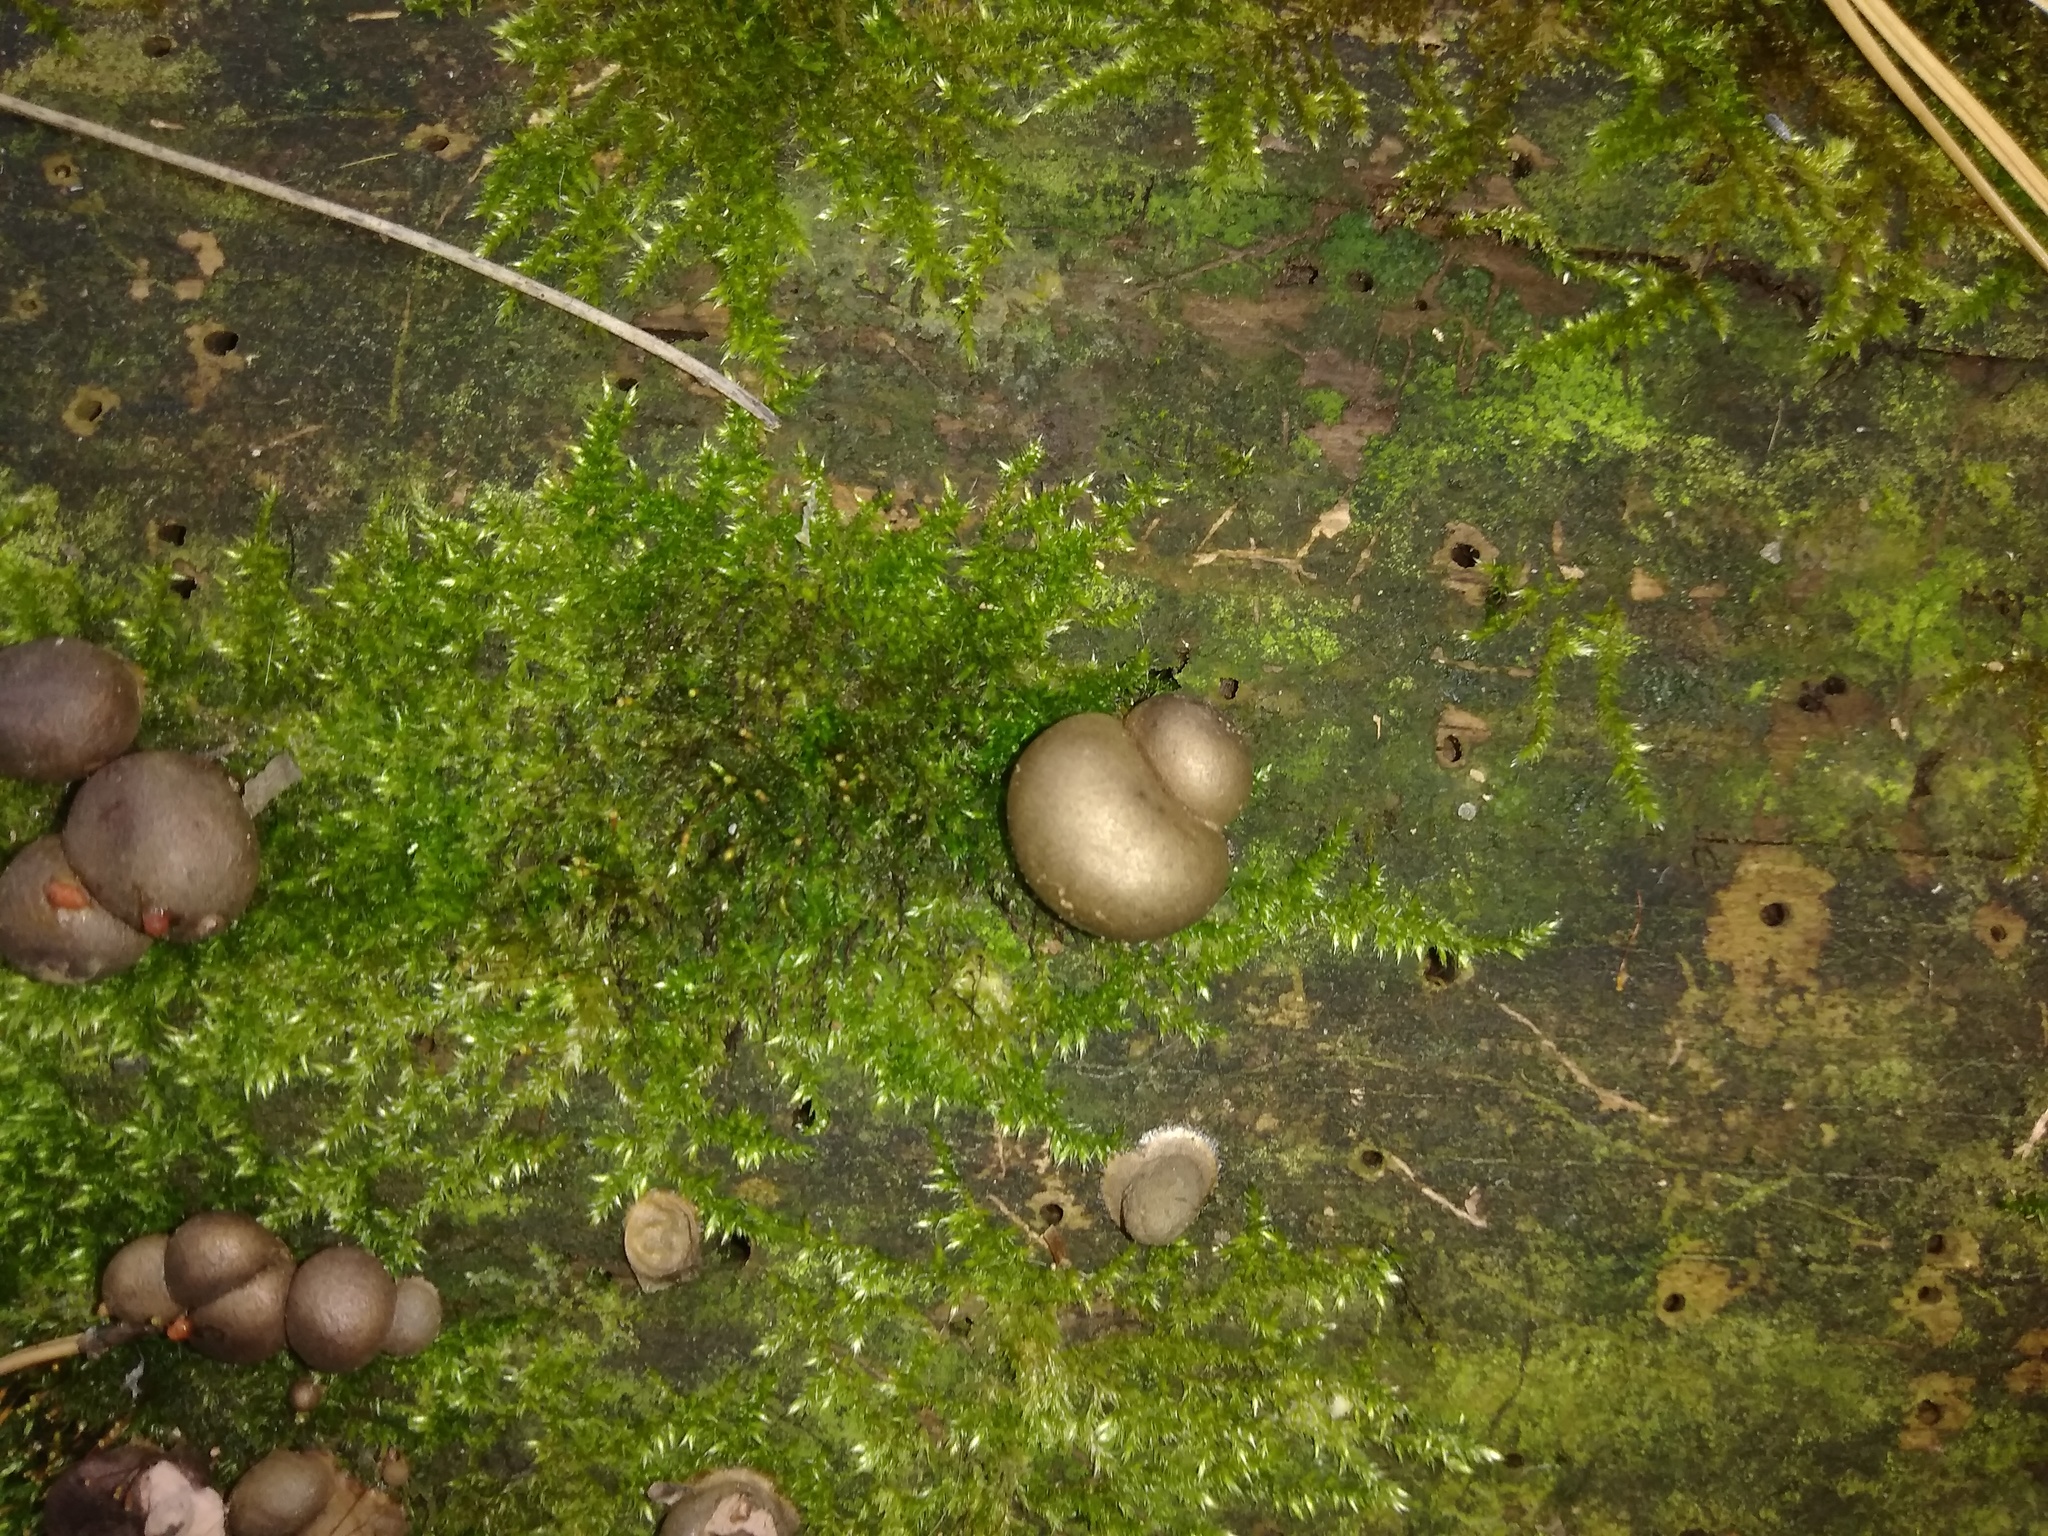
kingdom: Protozoa
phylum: Mycetozoa
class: Myxomycetes
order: Cribrariales
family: Tubiferaceae
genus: Lycogala
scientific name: Lycogala epidendrum
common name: Wolf's milk
